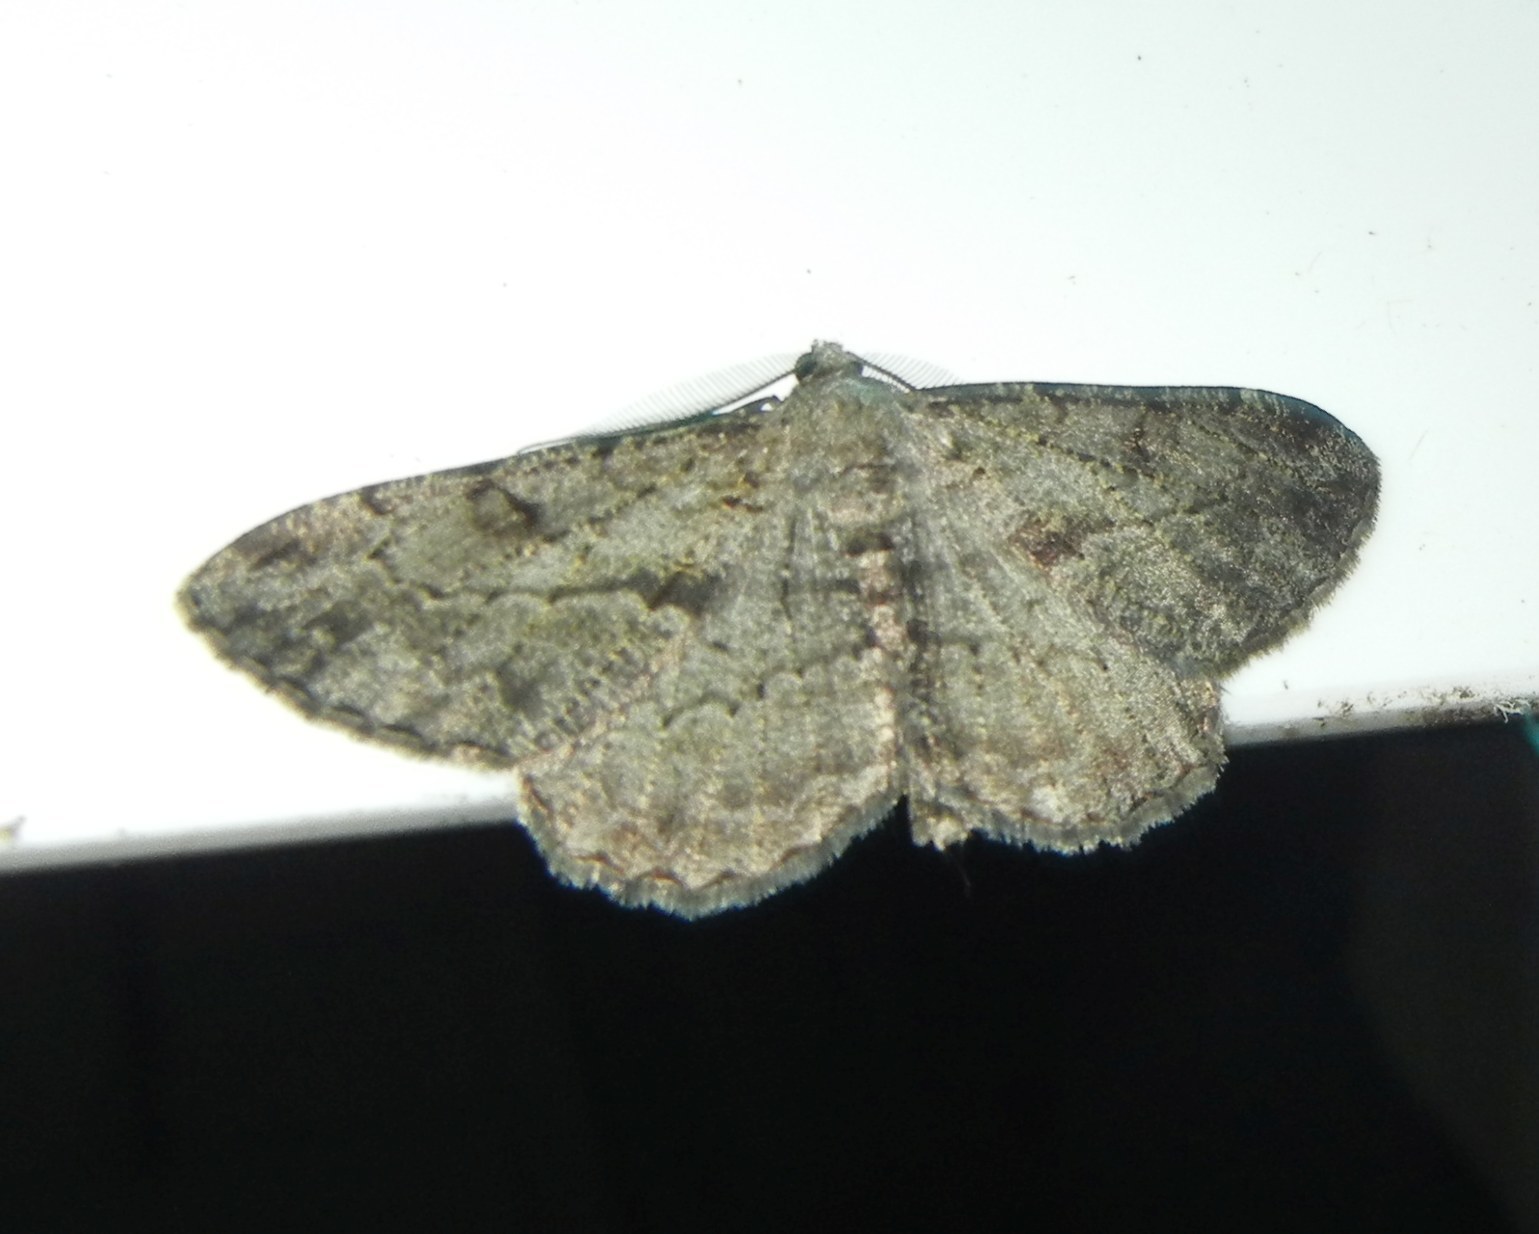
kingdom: Animalia
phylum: Arthropoda
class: Insecta
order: Lepidoptera
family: Geometridae
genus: Peribatodes
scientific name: Peribatodes rhomboidaria
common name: Willow beauty
